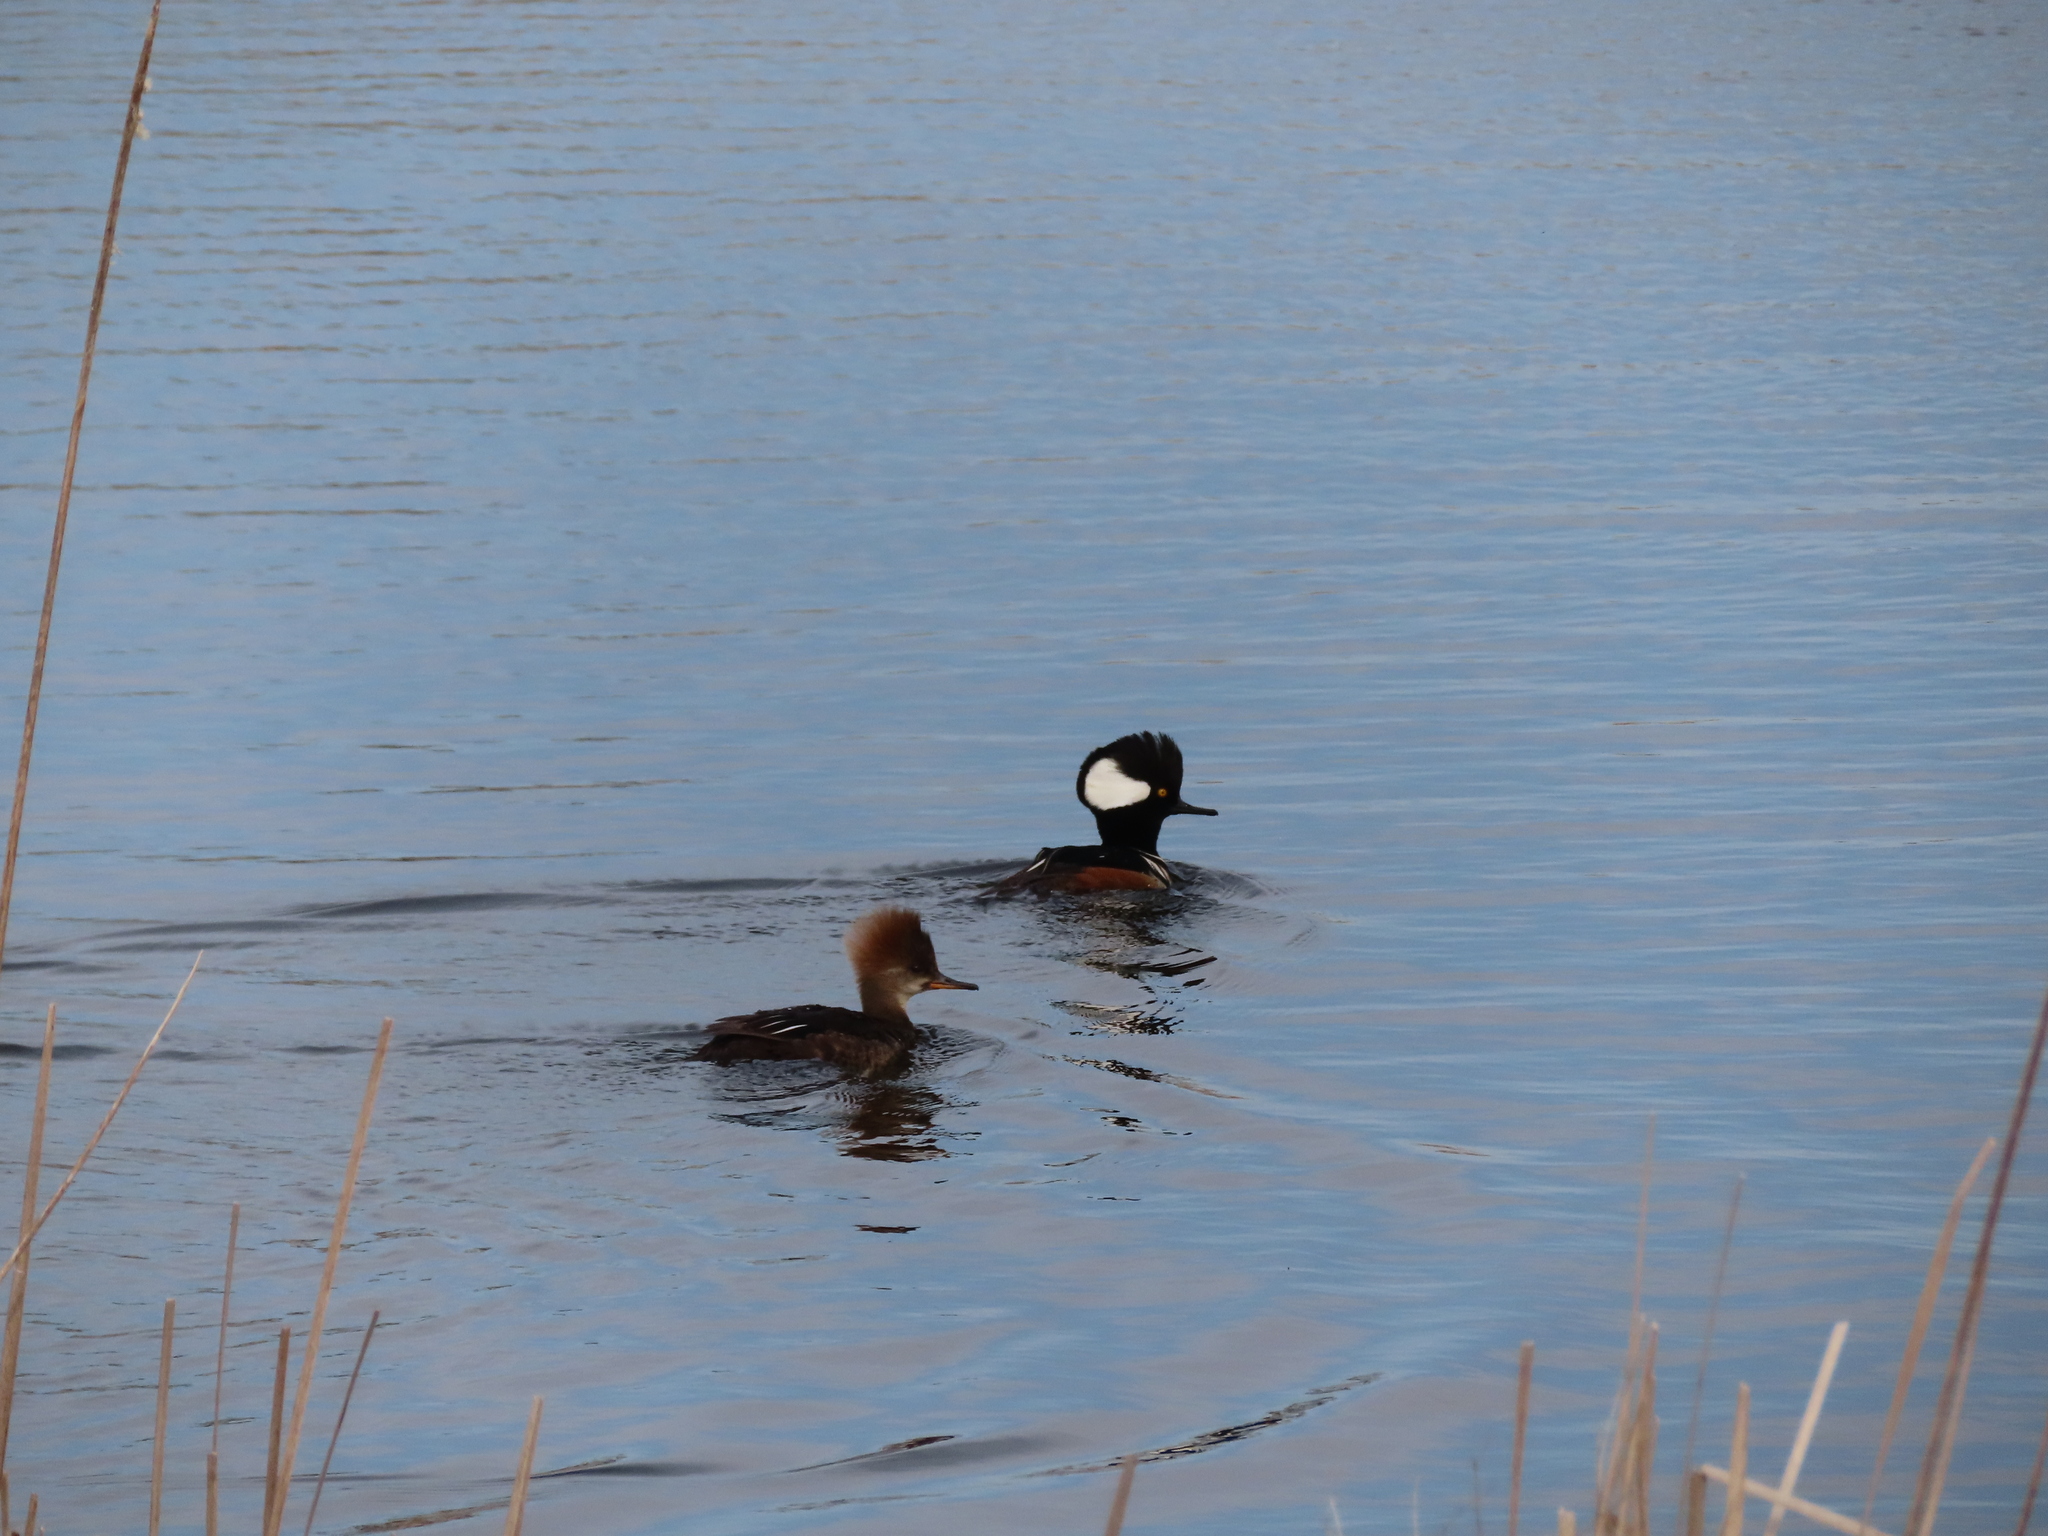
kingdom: Animalia
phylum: Chordata
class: Aves
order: Anseriformes
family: Anatidae
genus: Lophodytes
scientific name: Lophodytes cucullatus
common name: Hooded merganser
